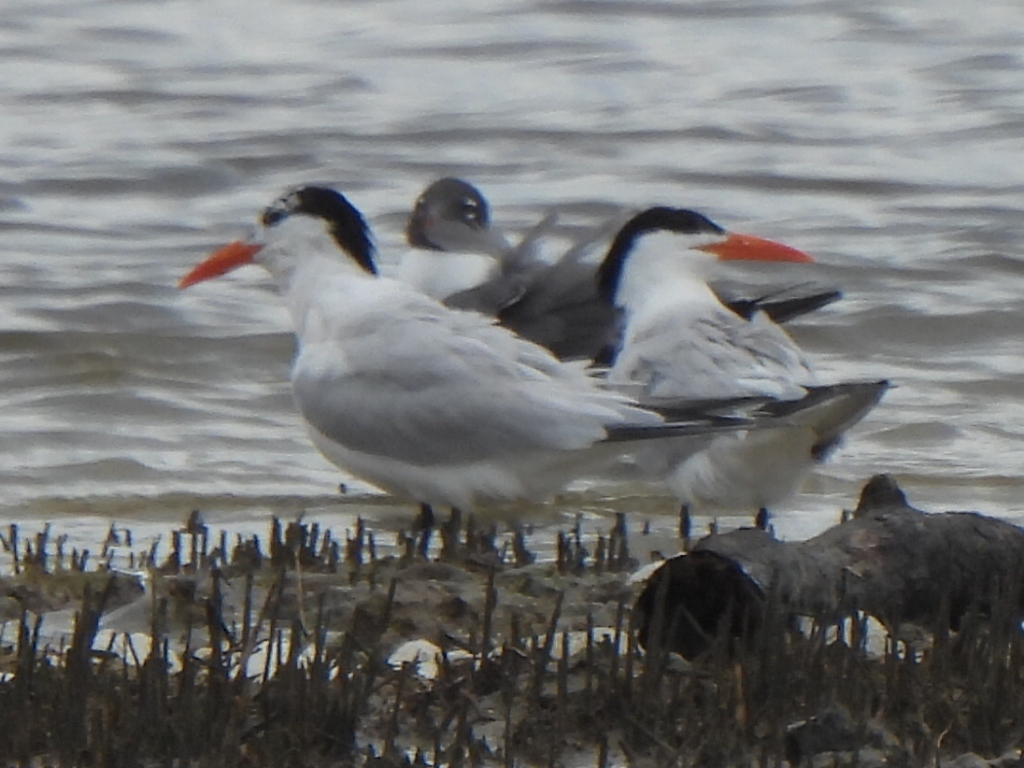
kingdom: Animalia
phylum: Chordata
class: Aves
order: Charadriiformes
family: Laridae
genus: Thalasseus
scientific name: Thalasseus maximus
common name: Royal tern
